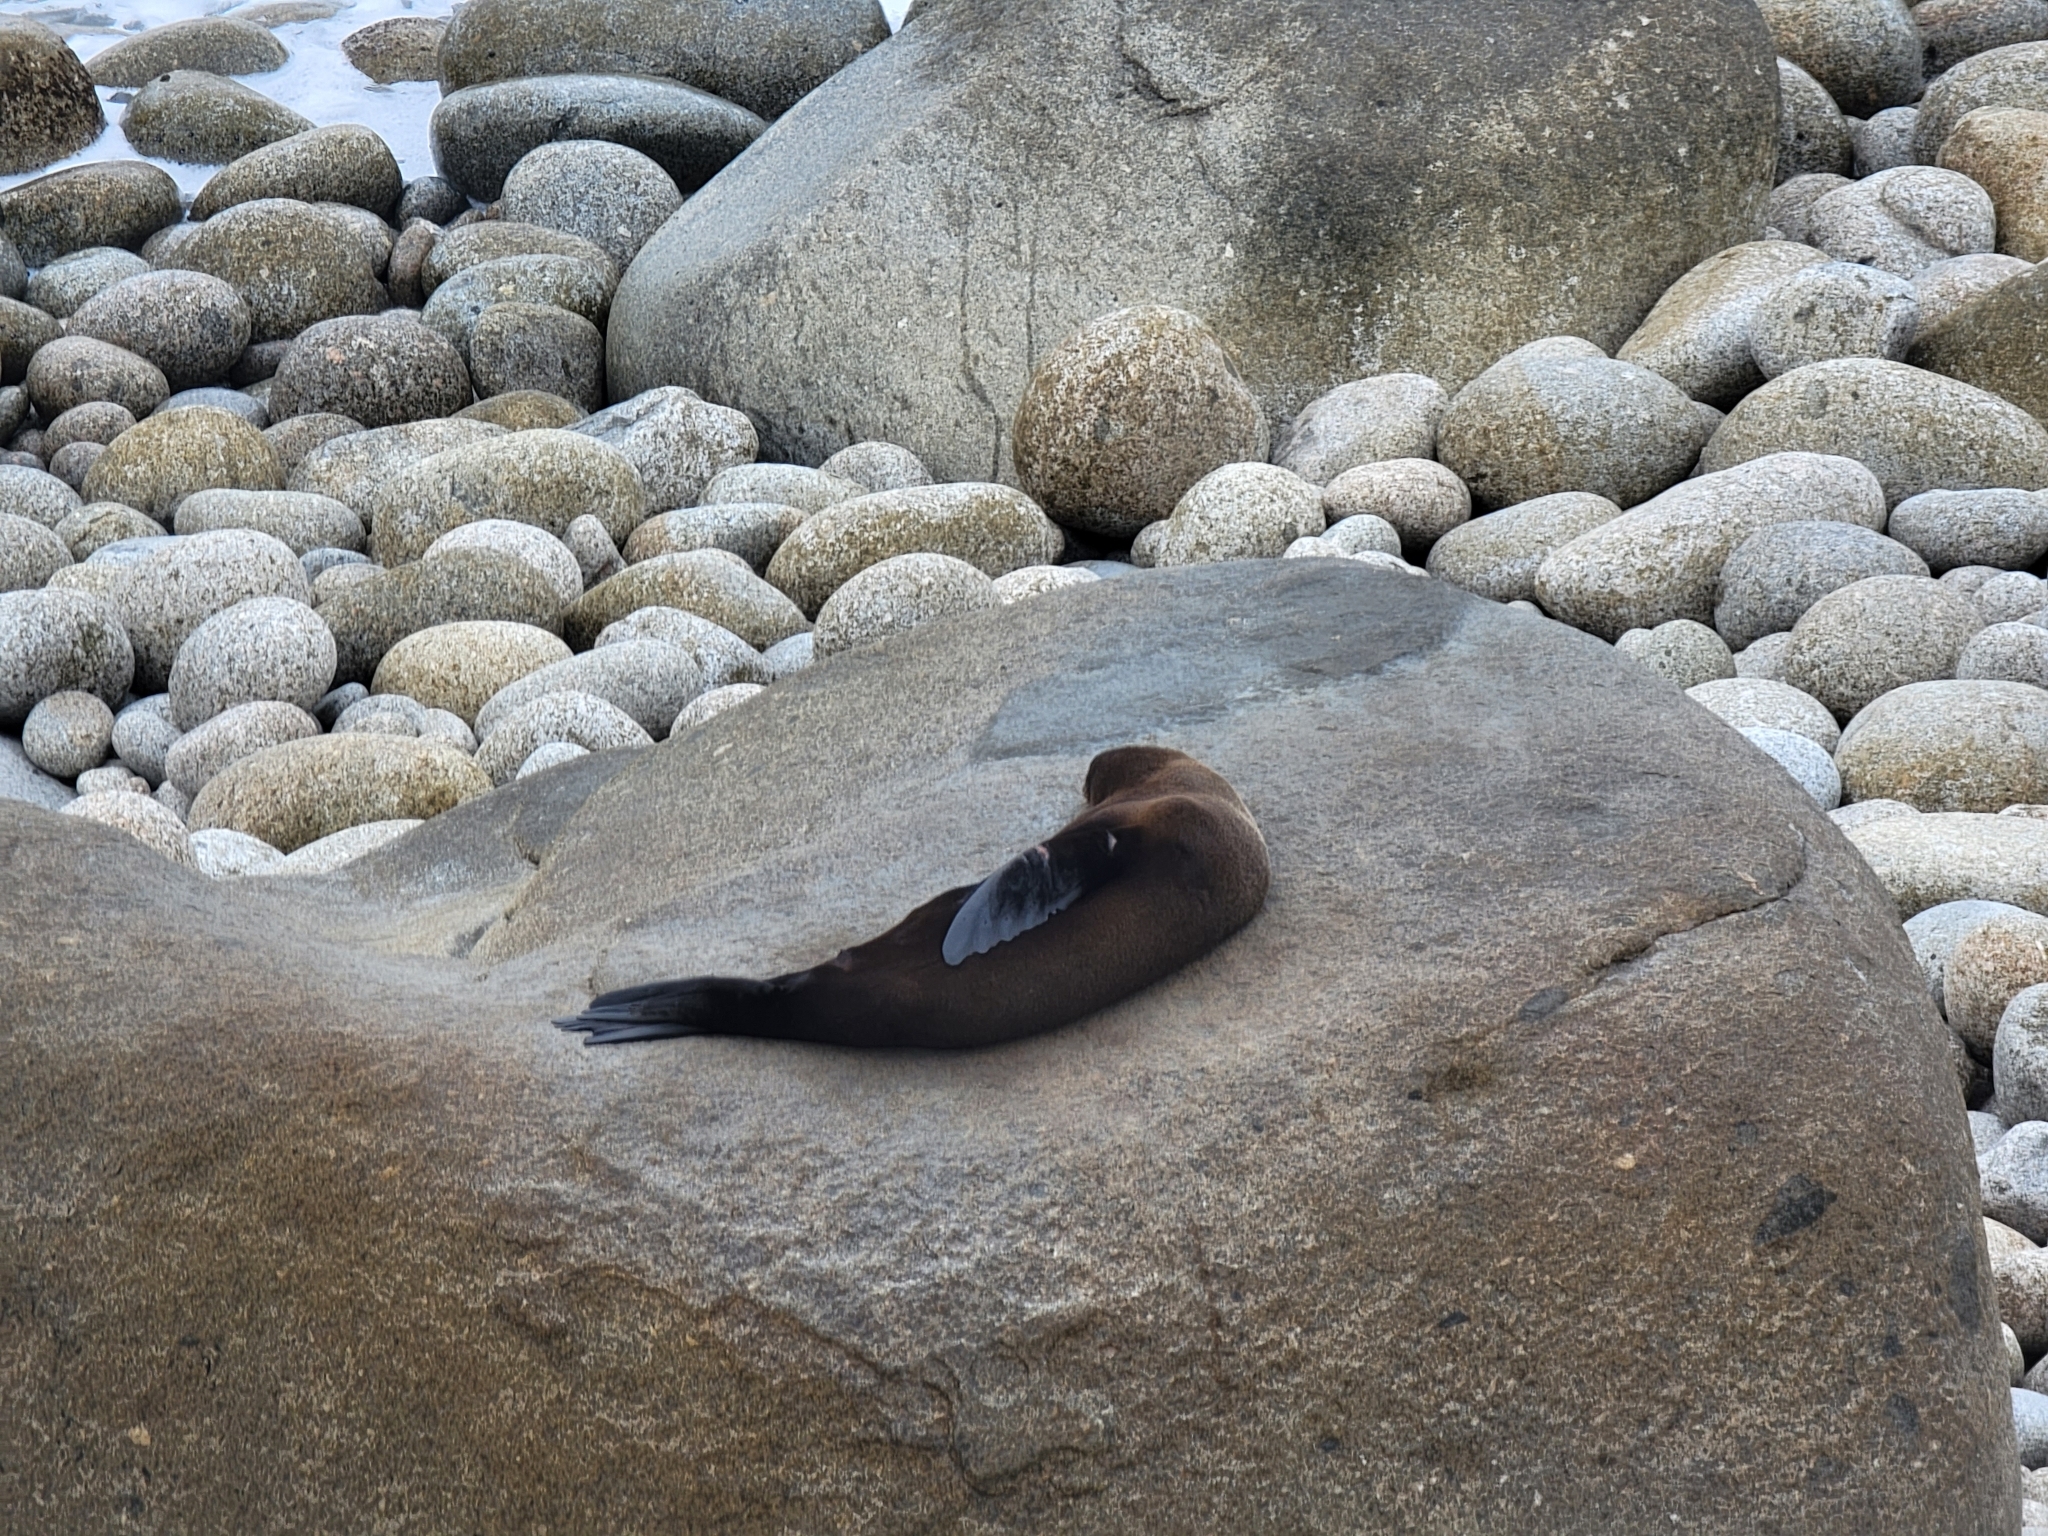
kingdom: Animalia
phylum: Chordata
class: Mammalia
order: Carnivora
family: Otariidae
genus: Arctocephalus
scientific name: Arctocephalus forsteri
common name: New zealand fur seal
